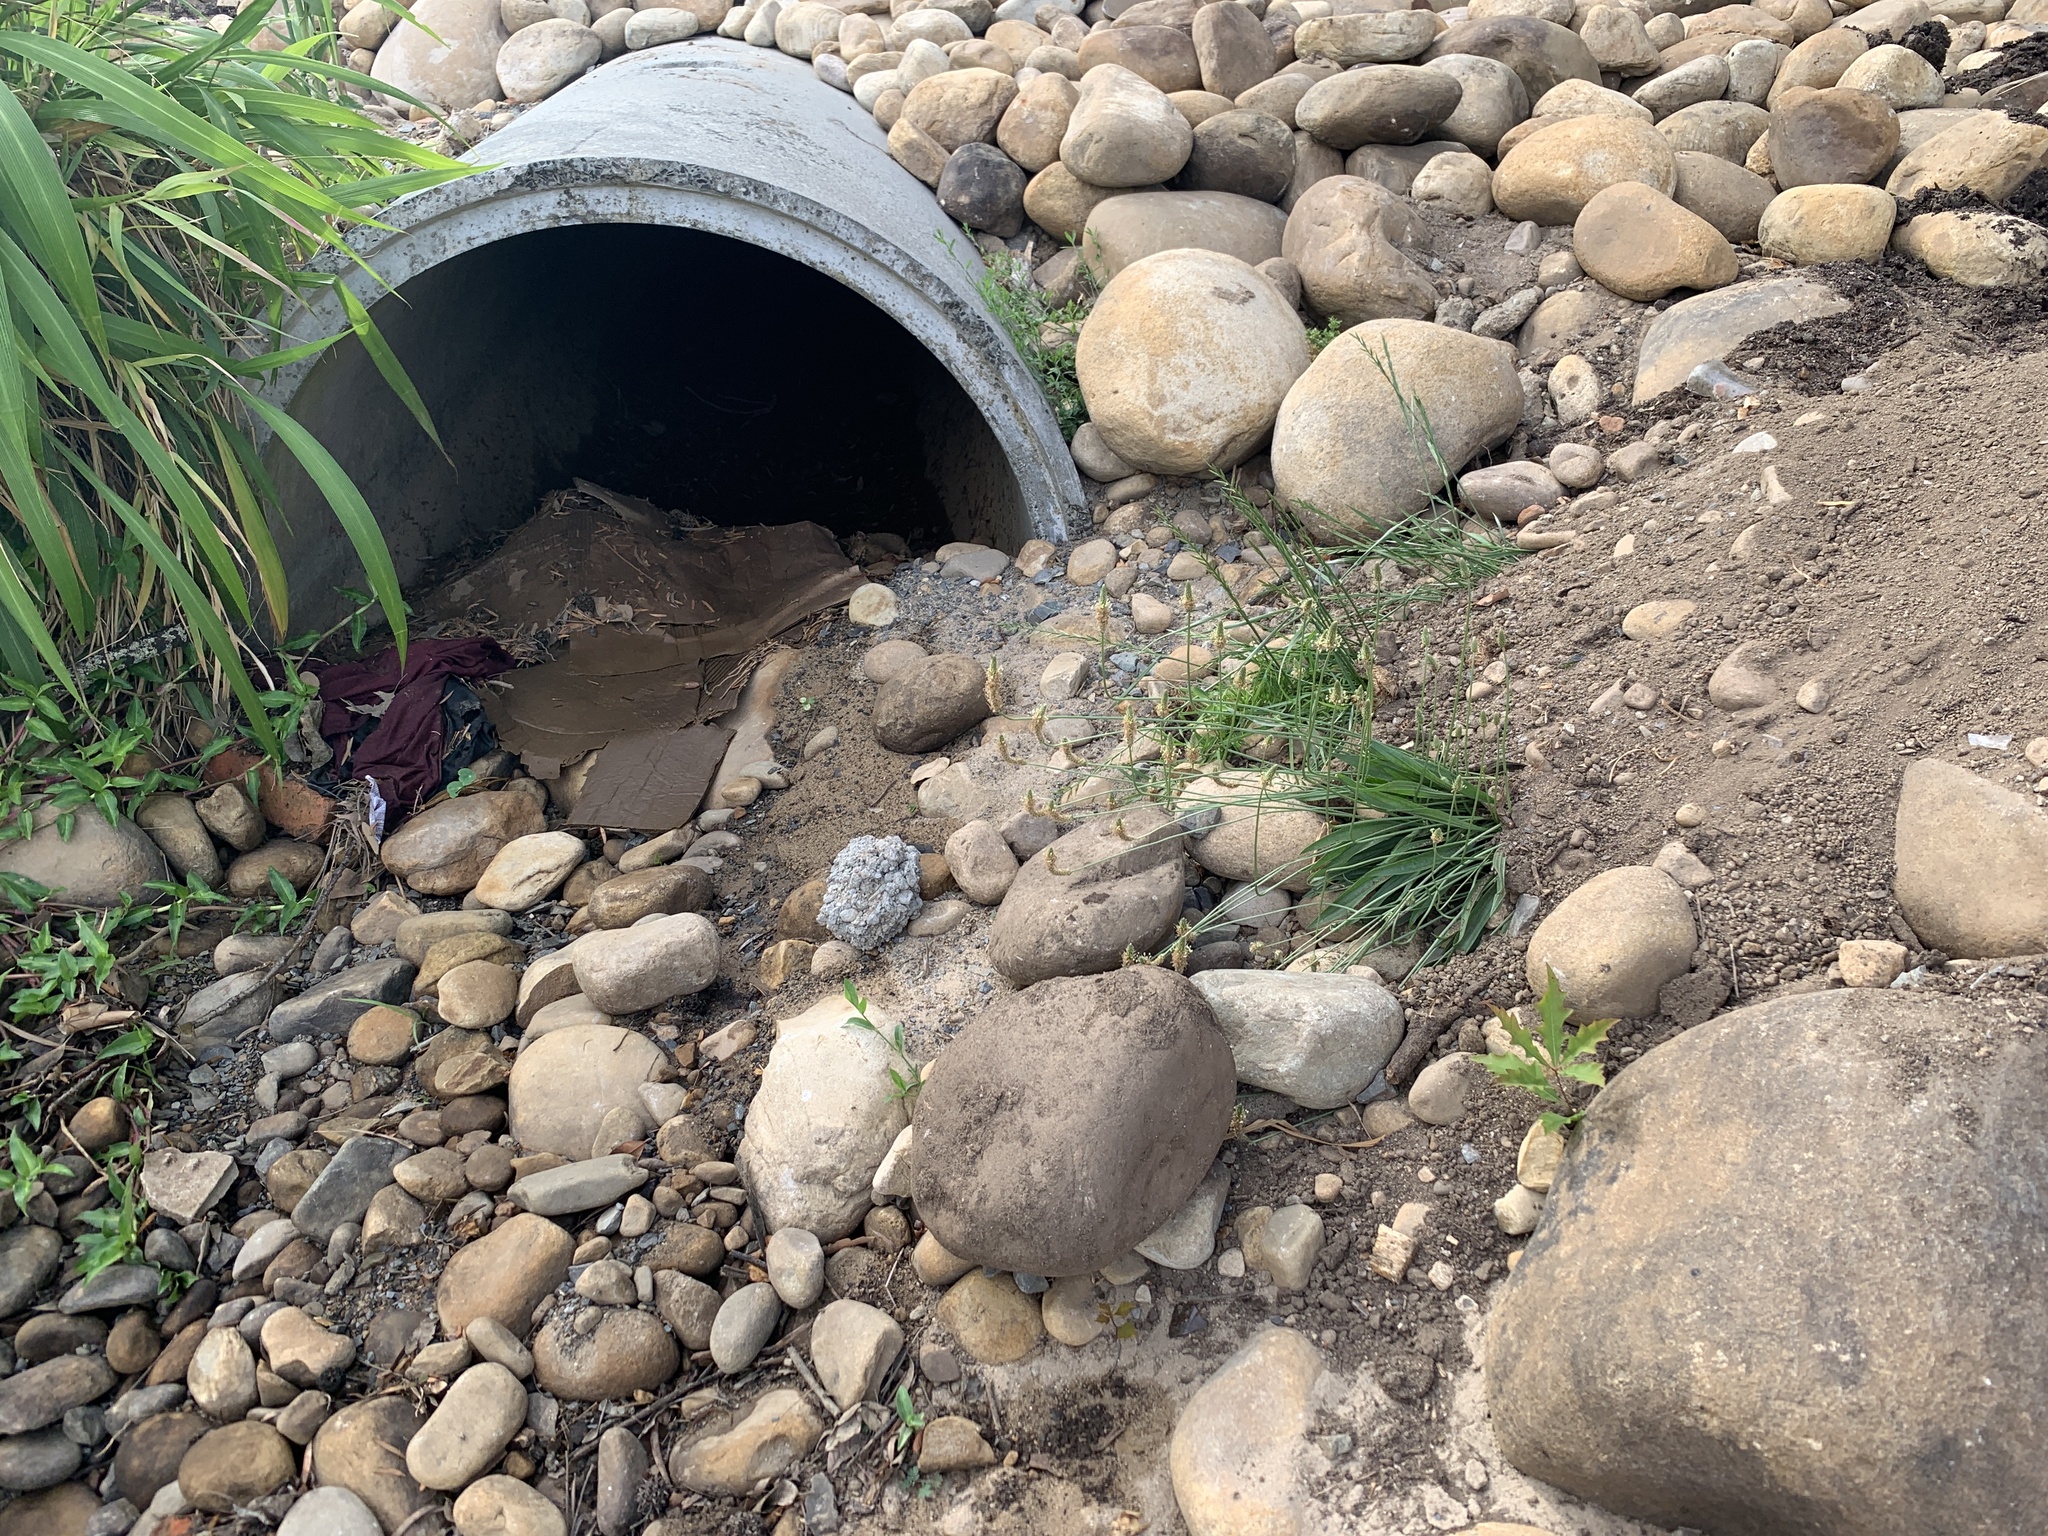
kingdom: Plantae
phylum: Tracheophyta
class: Magnoliopsida
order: Lamiales
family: Plantaginaceae
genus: Plantago
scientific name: Plantago lanceolata
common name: Ribwort plantain
